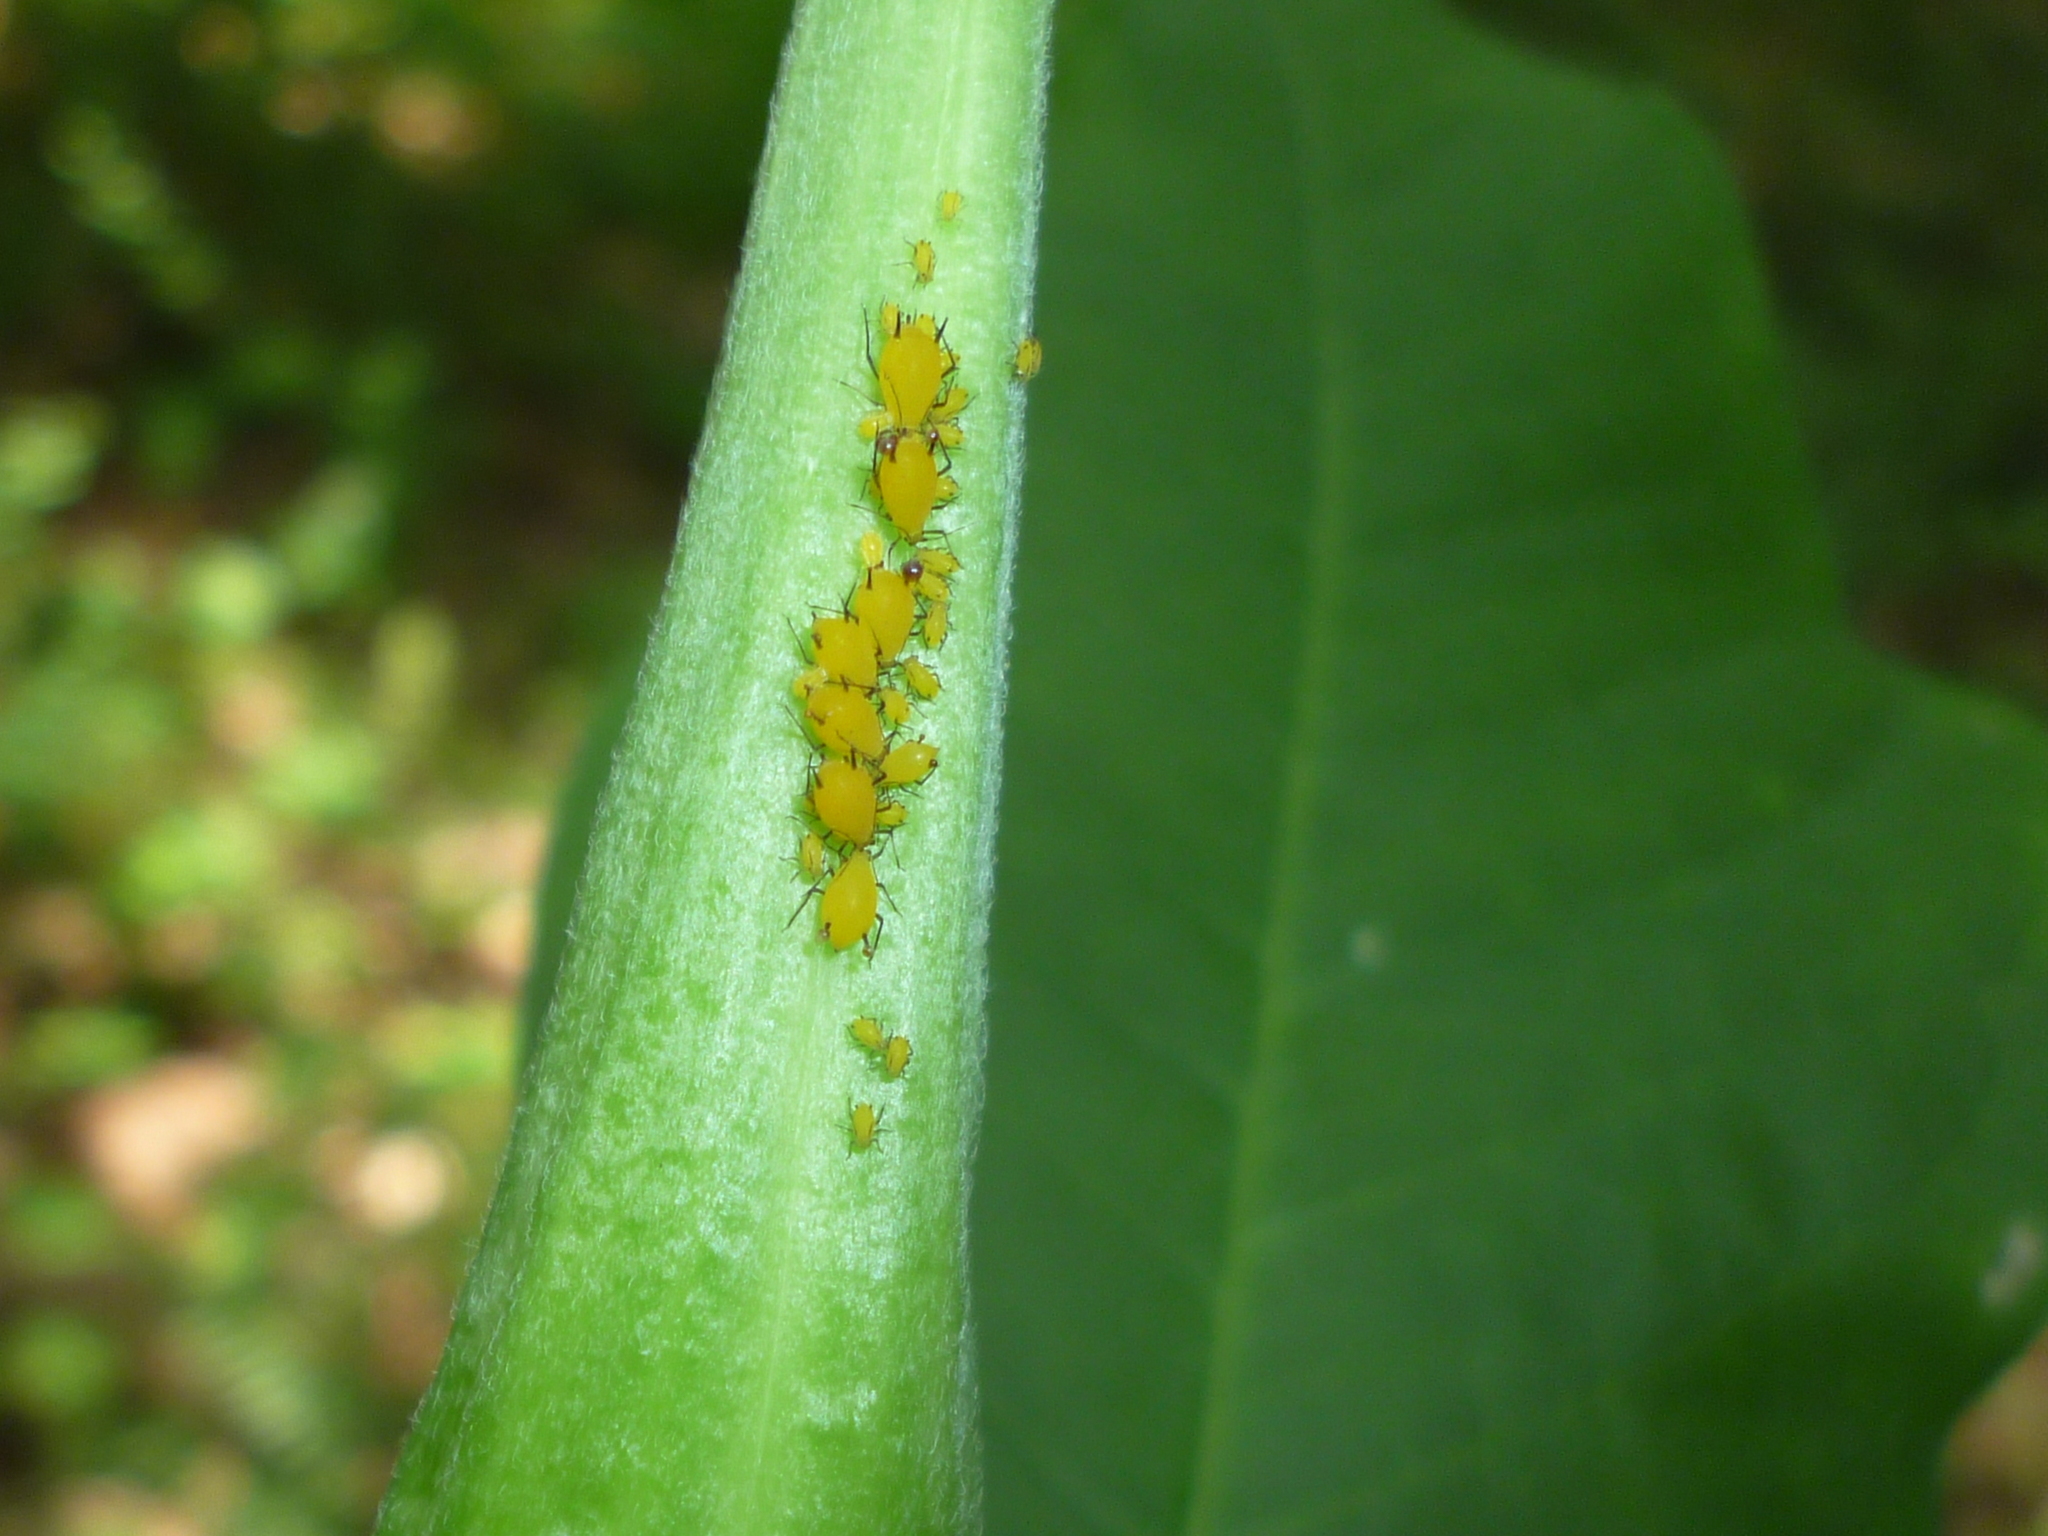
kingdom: Animalia
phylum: Arthropoda
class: Insecta
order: Hemiptera
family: Aphididae
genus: Aphis
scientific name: Aphis nerii
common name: Oleander aphid
